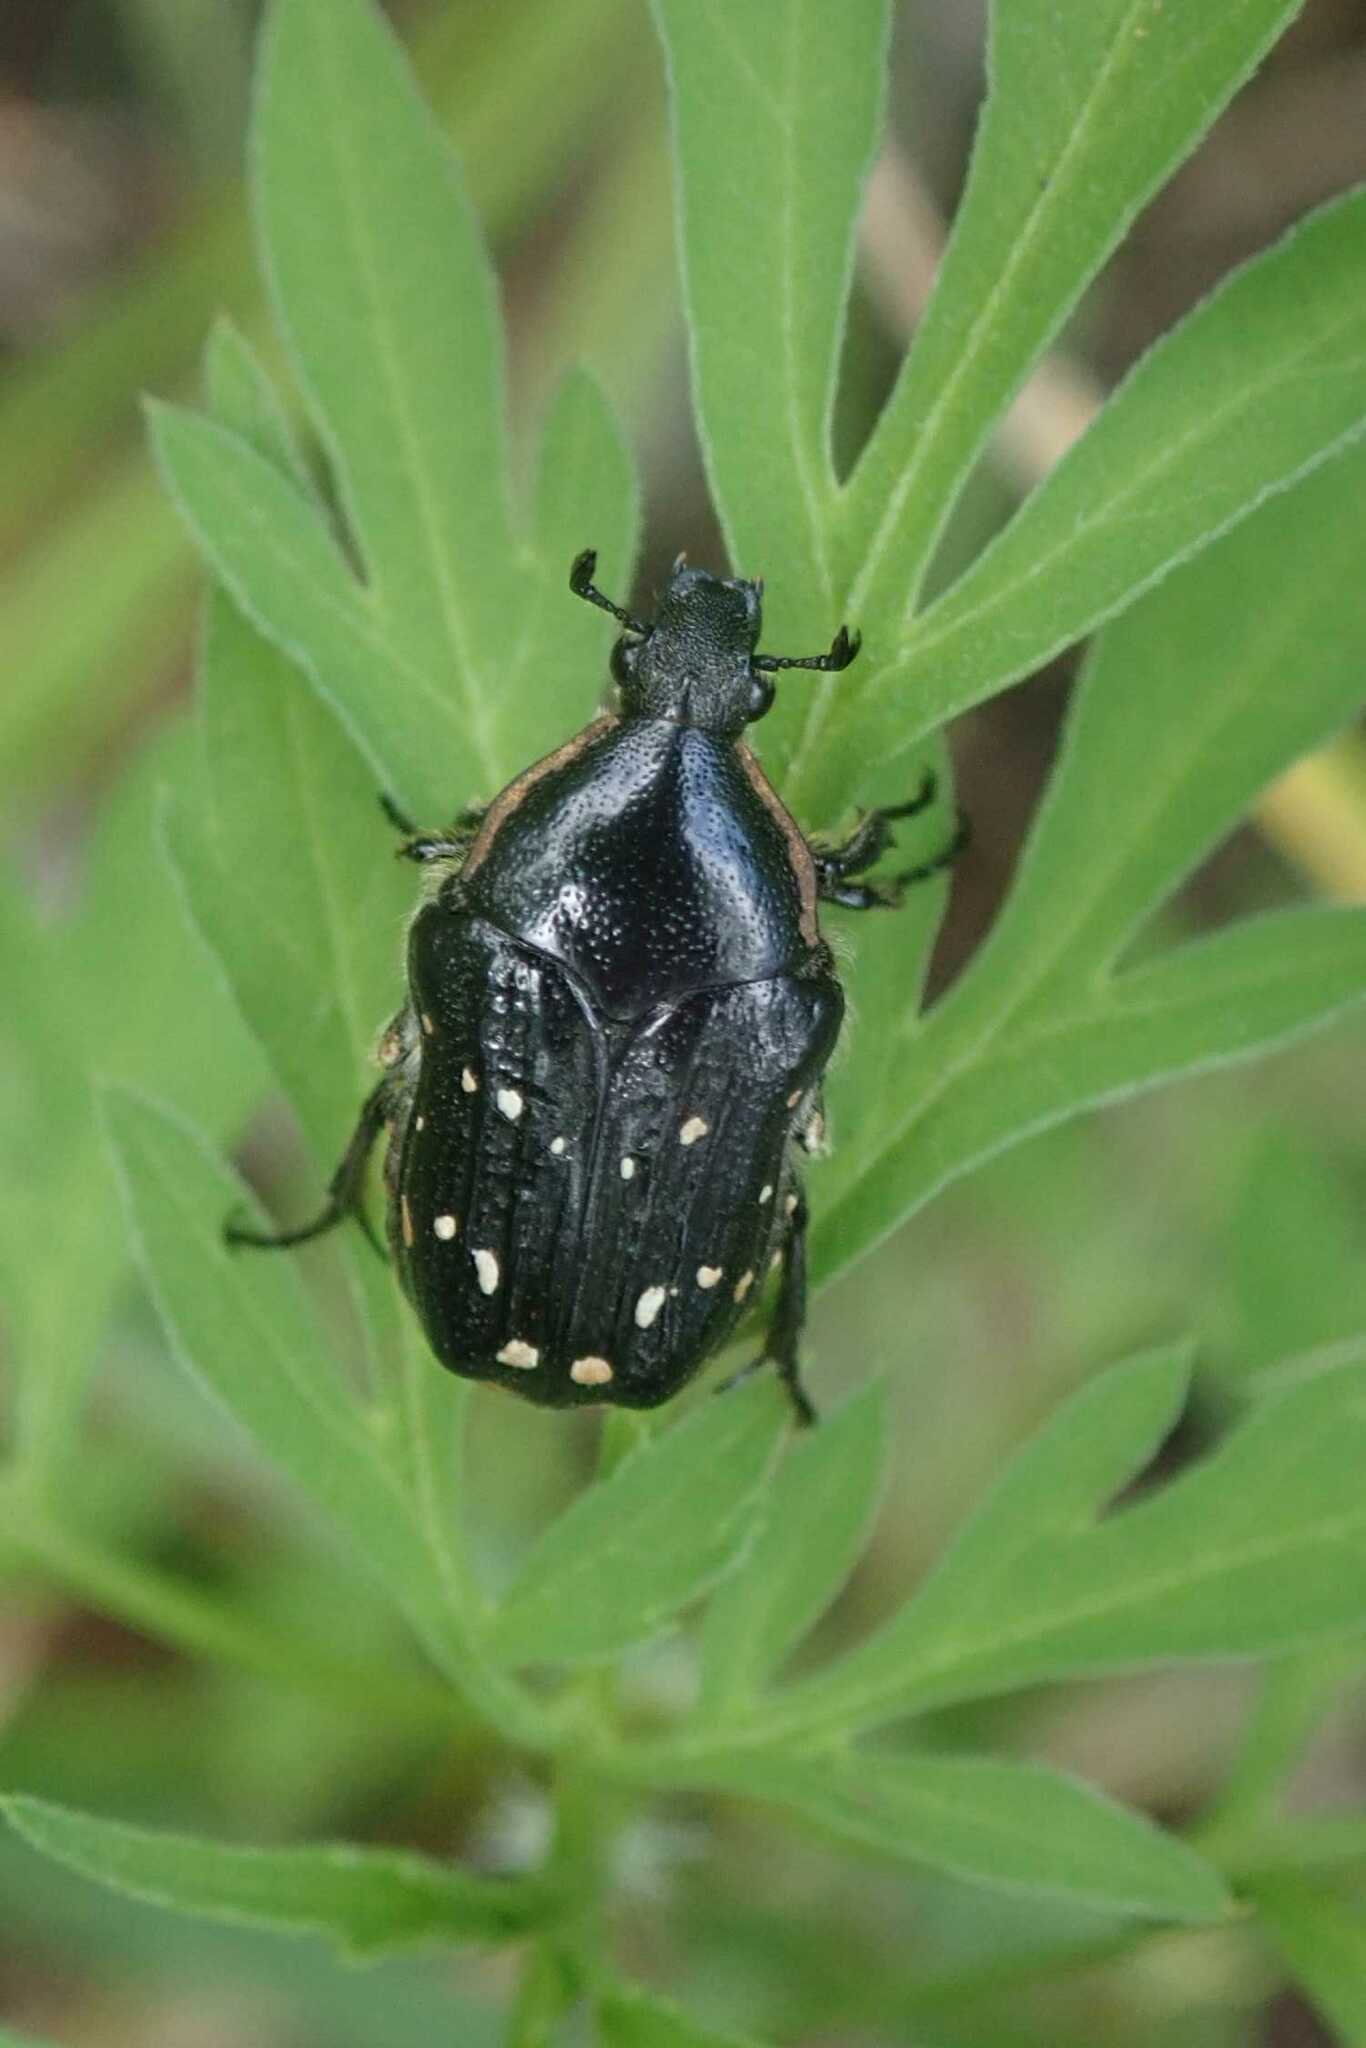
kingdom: Animalia
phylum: Arthropoda
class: Insecta
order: Coleoptera
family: Scarabaeidae
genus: Clinteroides
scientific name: Clinteroides permutans
